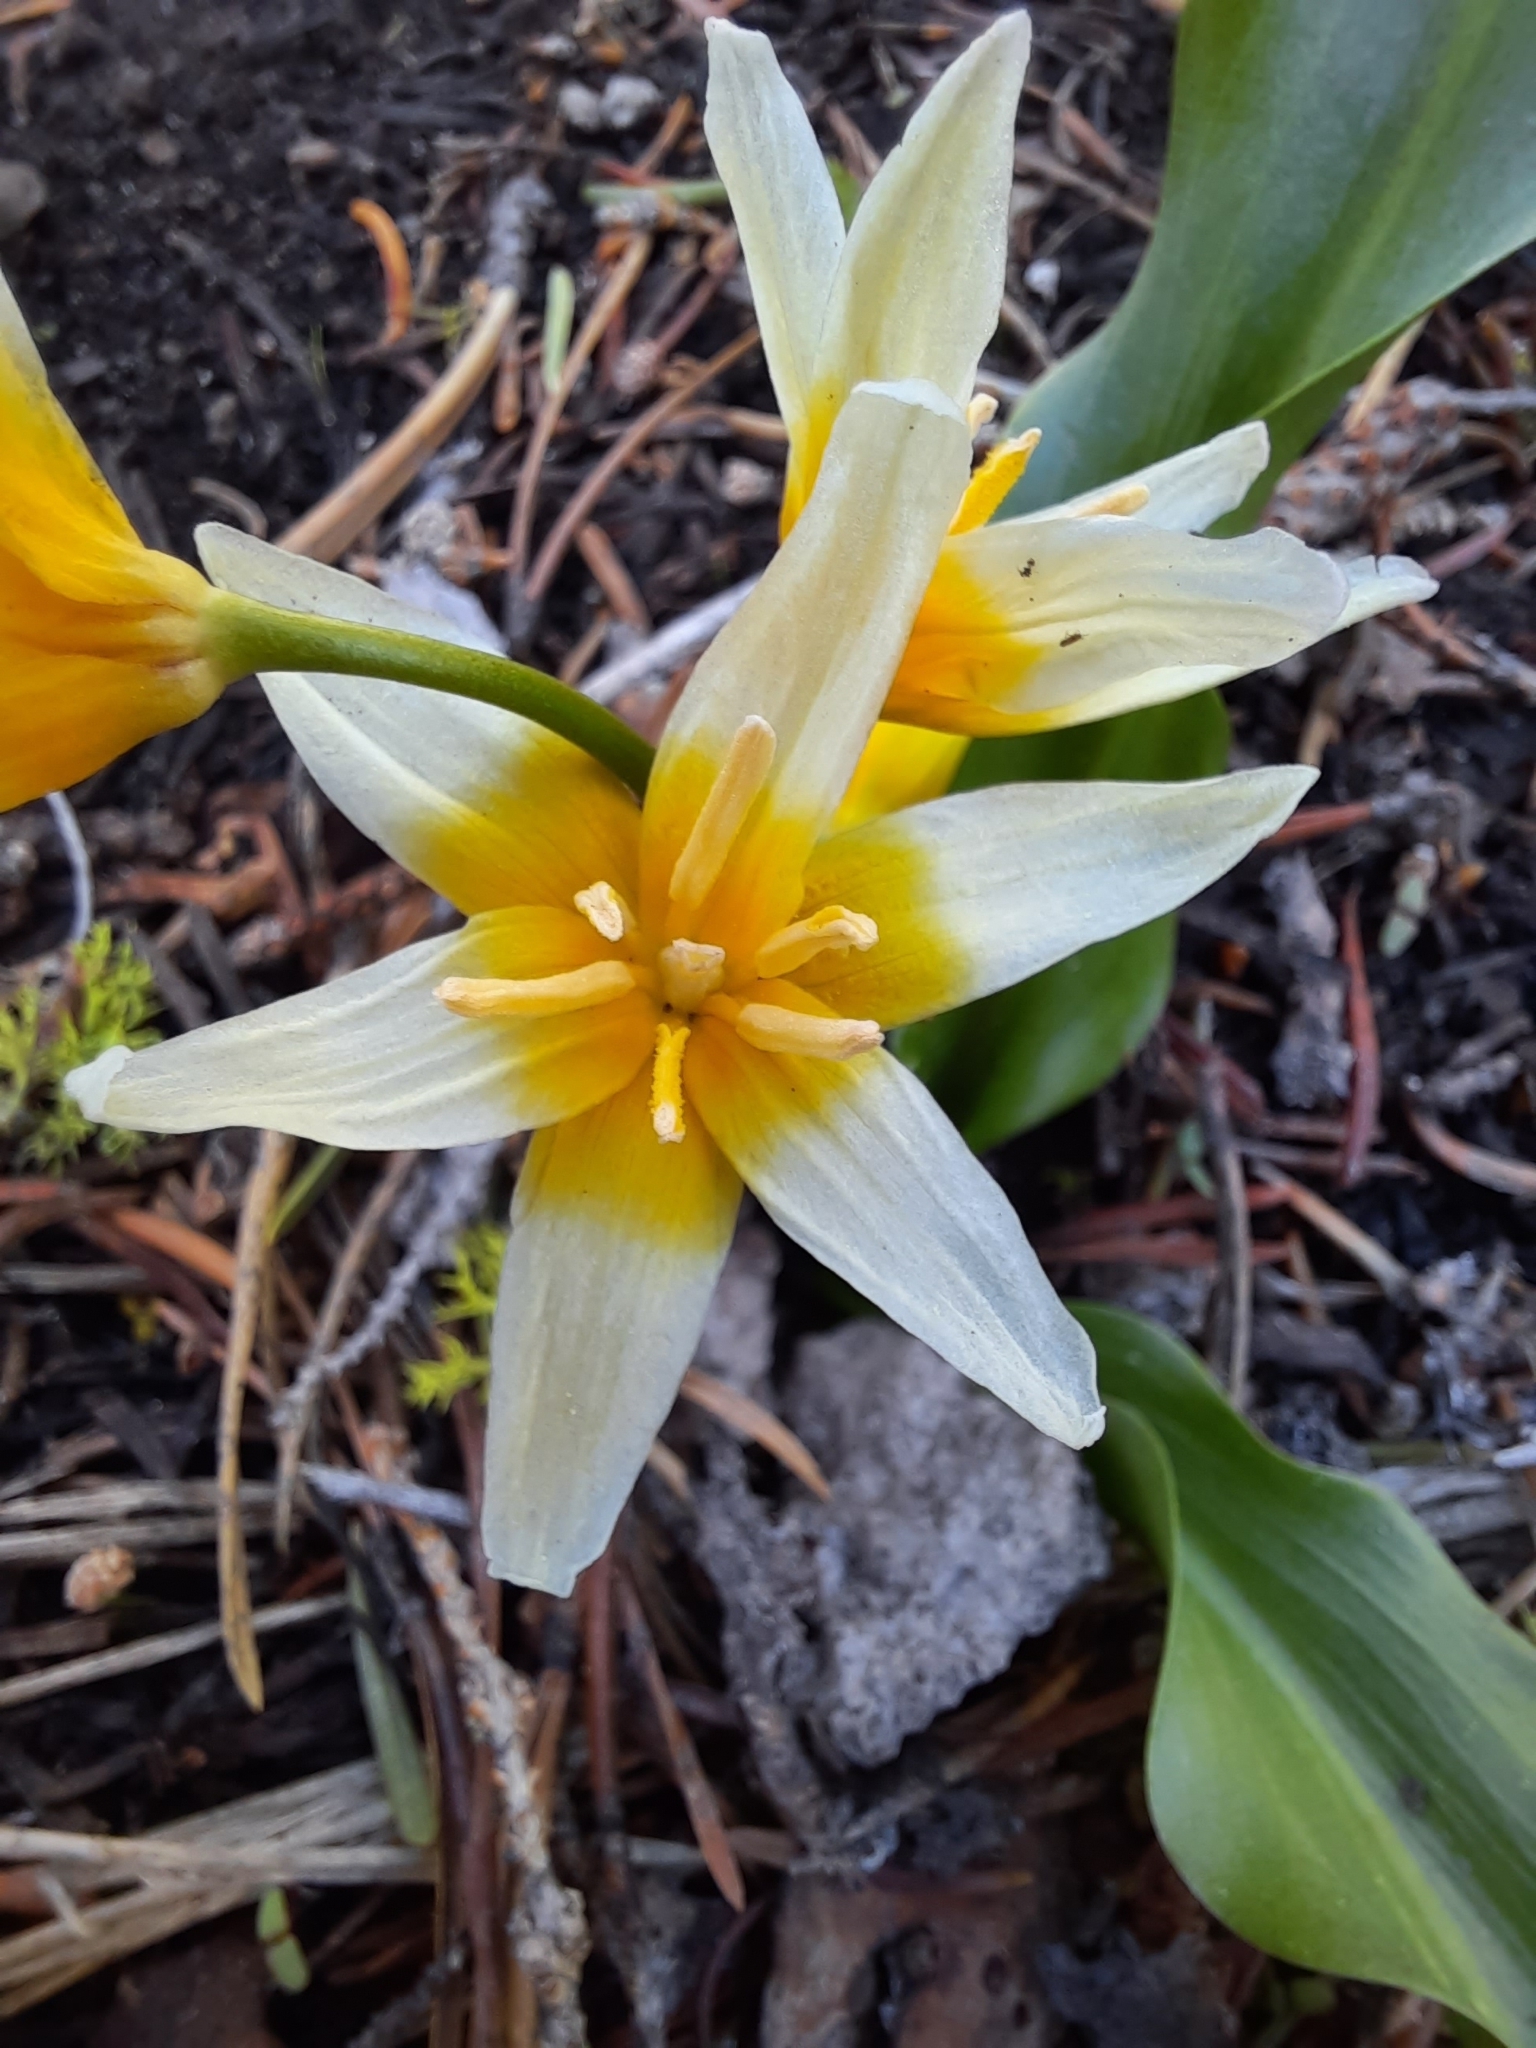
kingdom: Plantae
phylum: Tracheophyta
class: Liliopsida
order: Liliales
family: Liliaceae
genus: Erythronium
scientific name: Erythronium purpurascens
